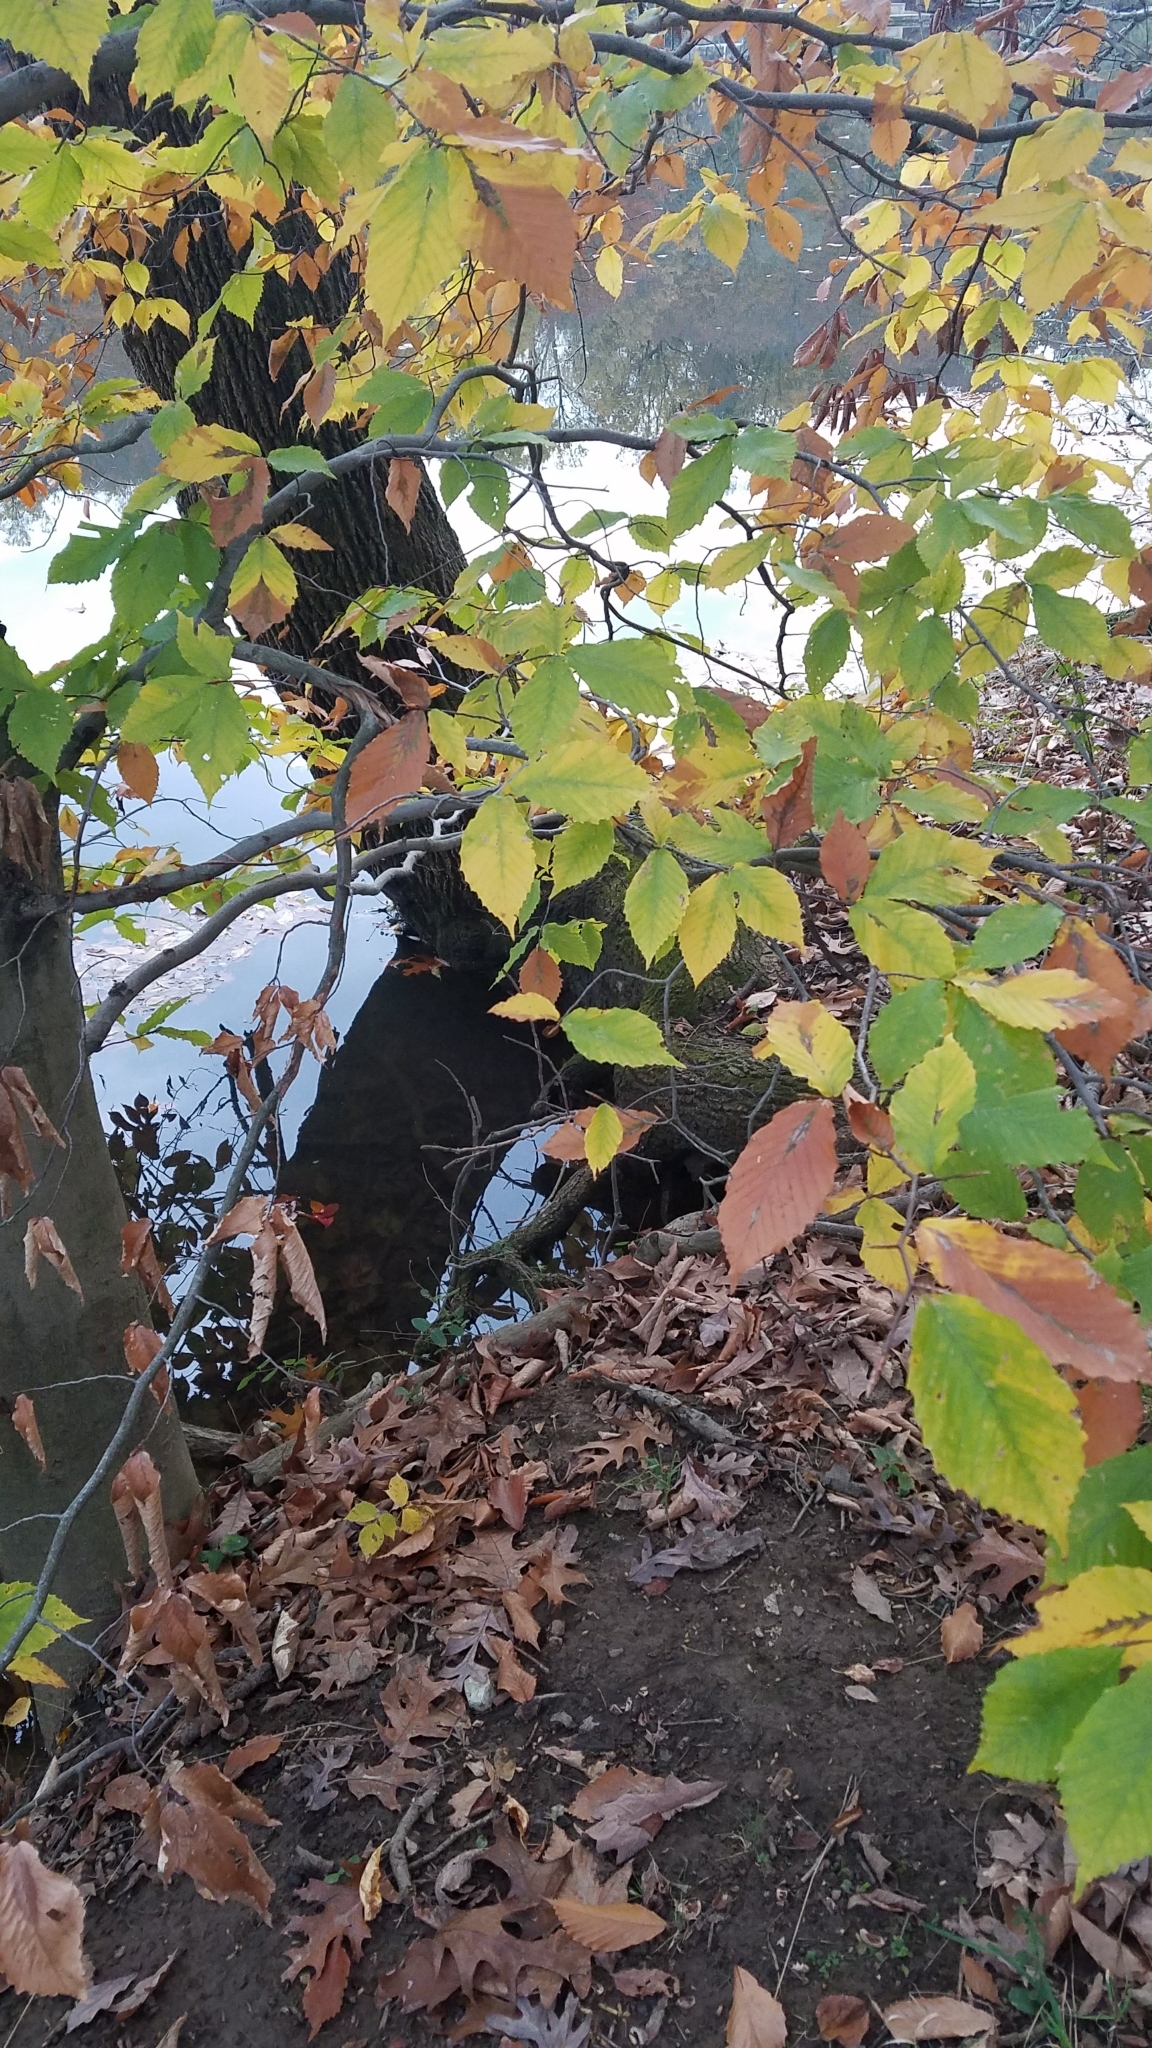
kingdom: Plantae
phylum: Tracheophyta
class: Magnoliopsida
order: Fagales
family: Fagaceae
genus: Fagus
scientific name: Fagus grandifolia
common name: American beech
